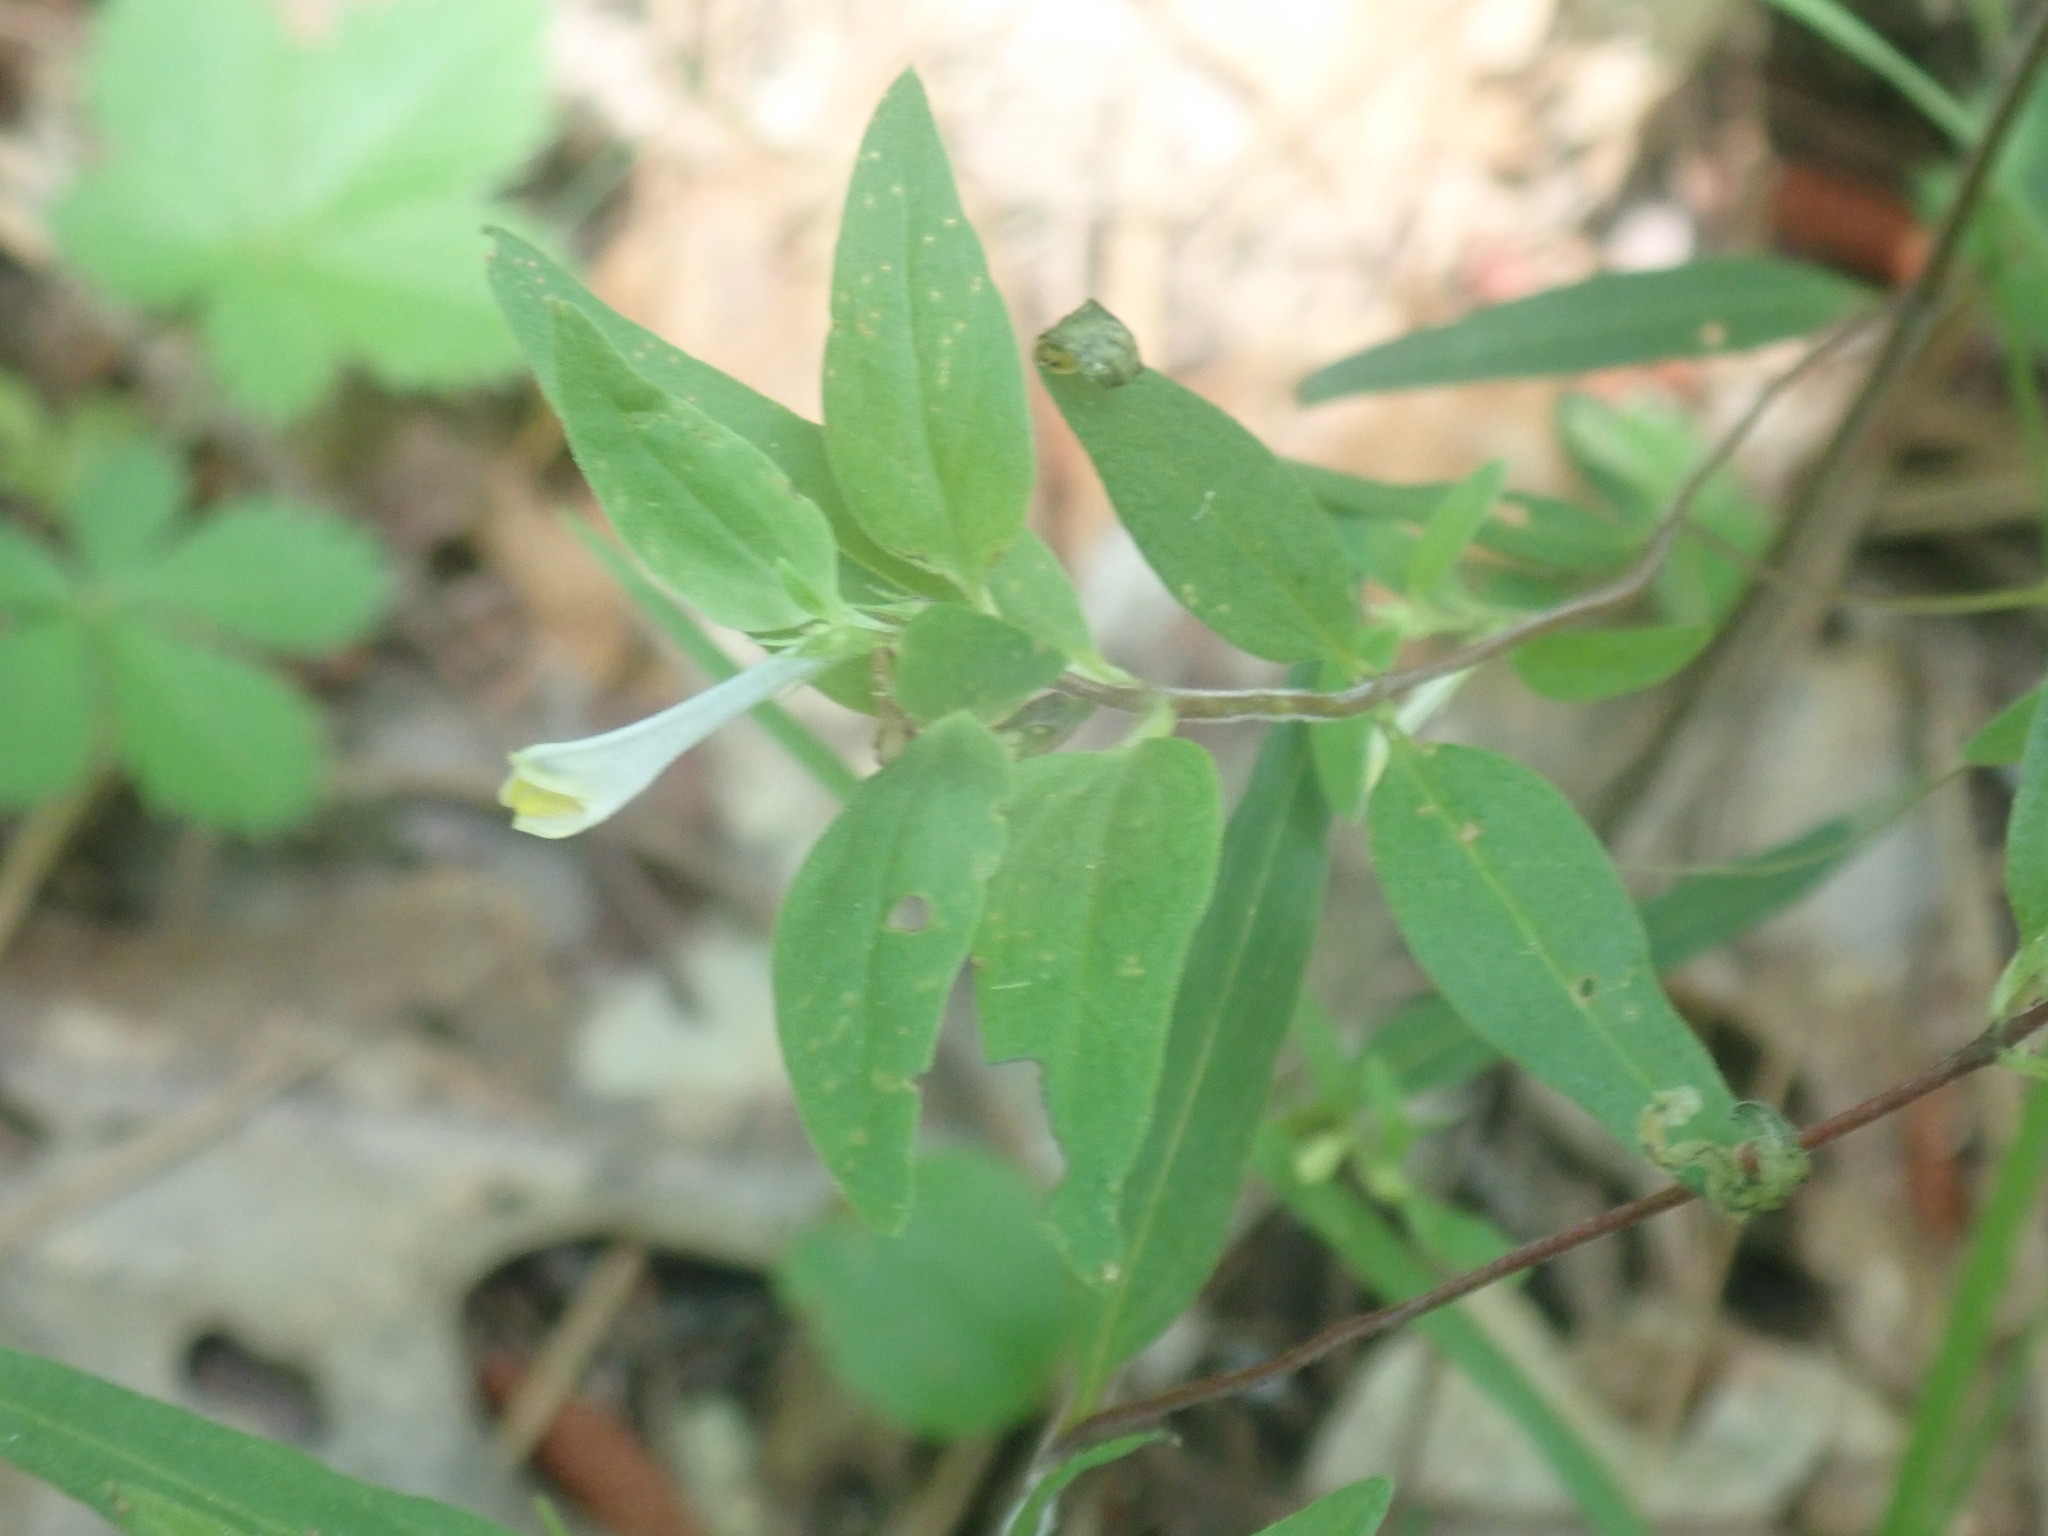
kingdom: Plantae
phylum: Tracheophyta
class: Magnoliopsida
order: Lamiales
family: Orobanchaceae
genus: Melampyrum
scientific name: Melampyrum lineare
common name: American cow-wheat
